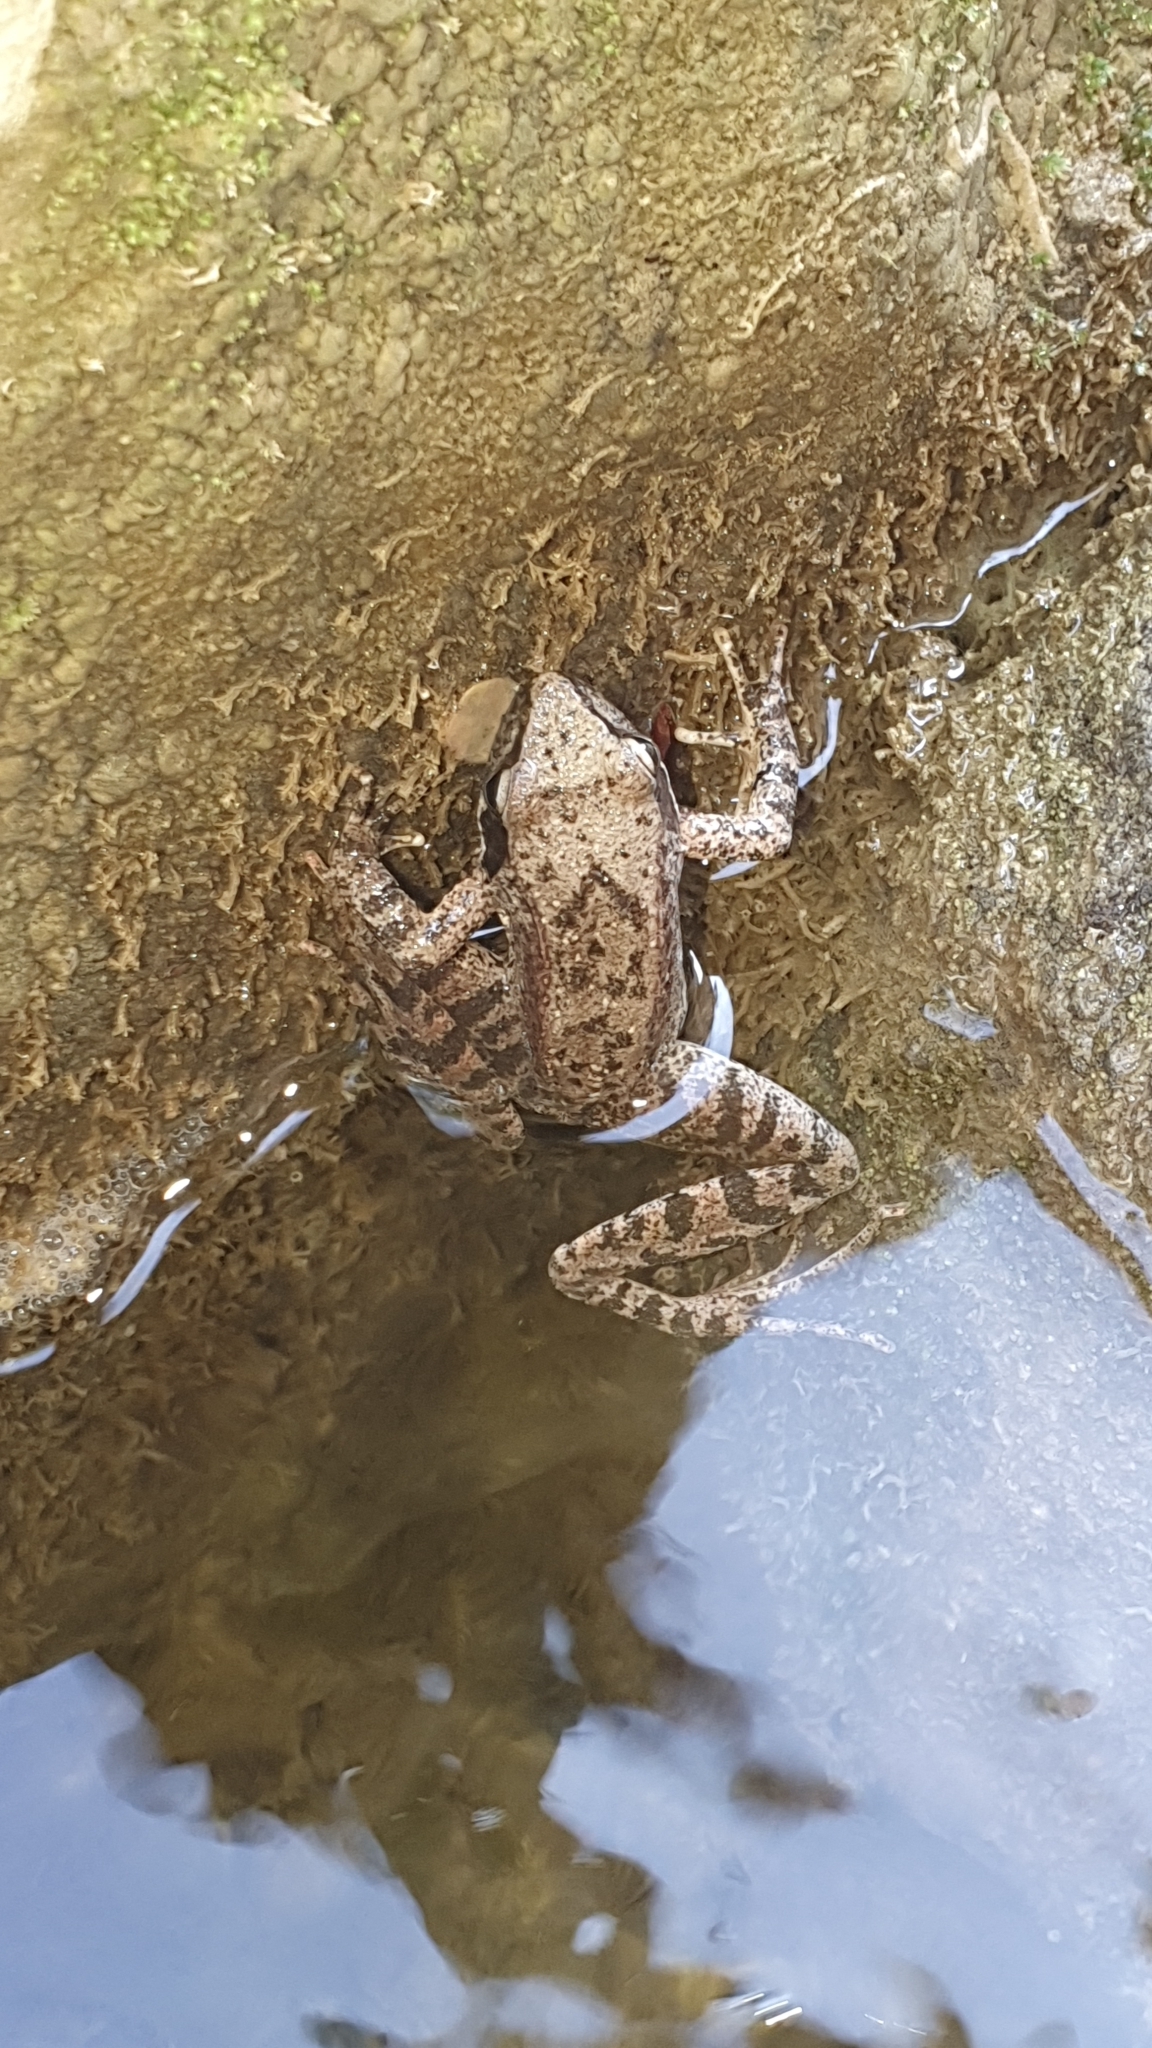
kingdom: Animalia
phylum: Chordata
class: Amphibia
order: Anura
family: Ranidae
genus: Rana
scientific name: Rana italica
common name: Italian stream frog
